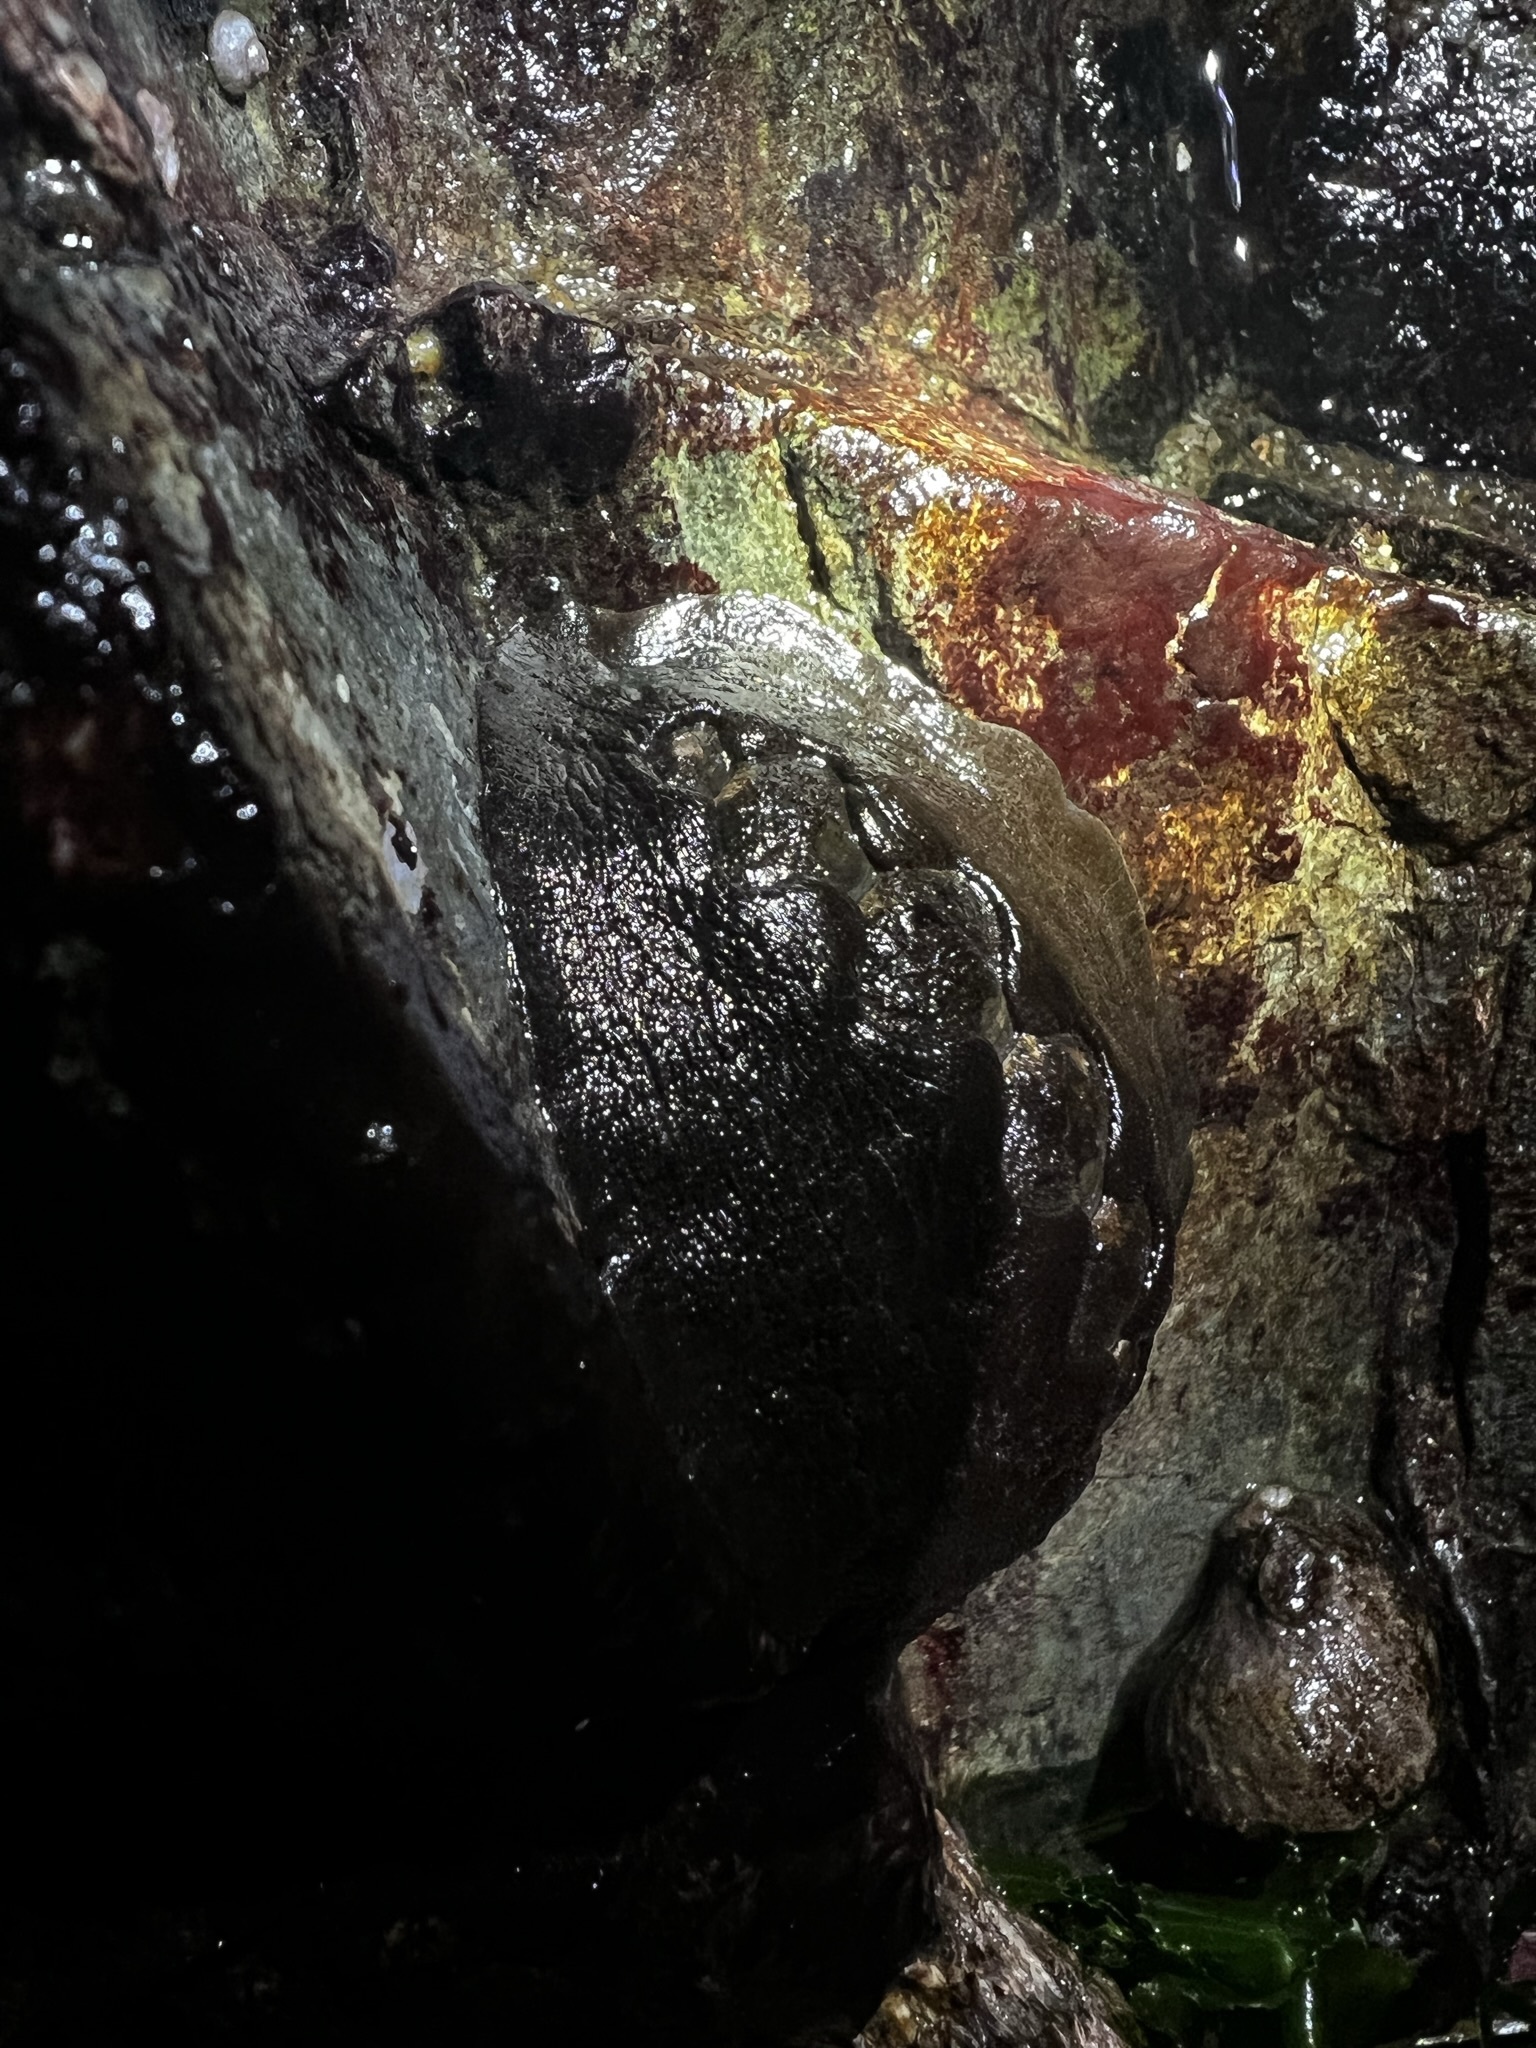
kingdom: Animalia
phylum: Mollusca
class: Polyplacophora
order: Chitonida
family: Mopaliidae
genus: Katharina
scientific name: Katharina tunicata
